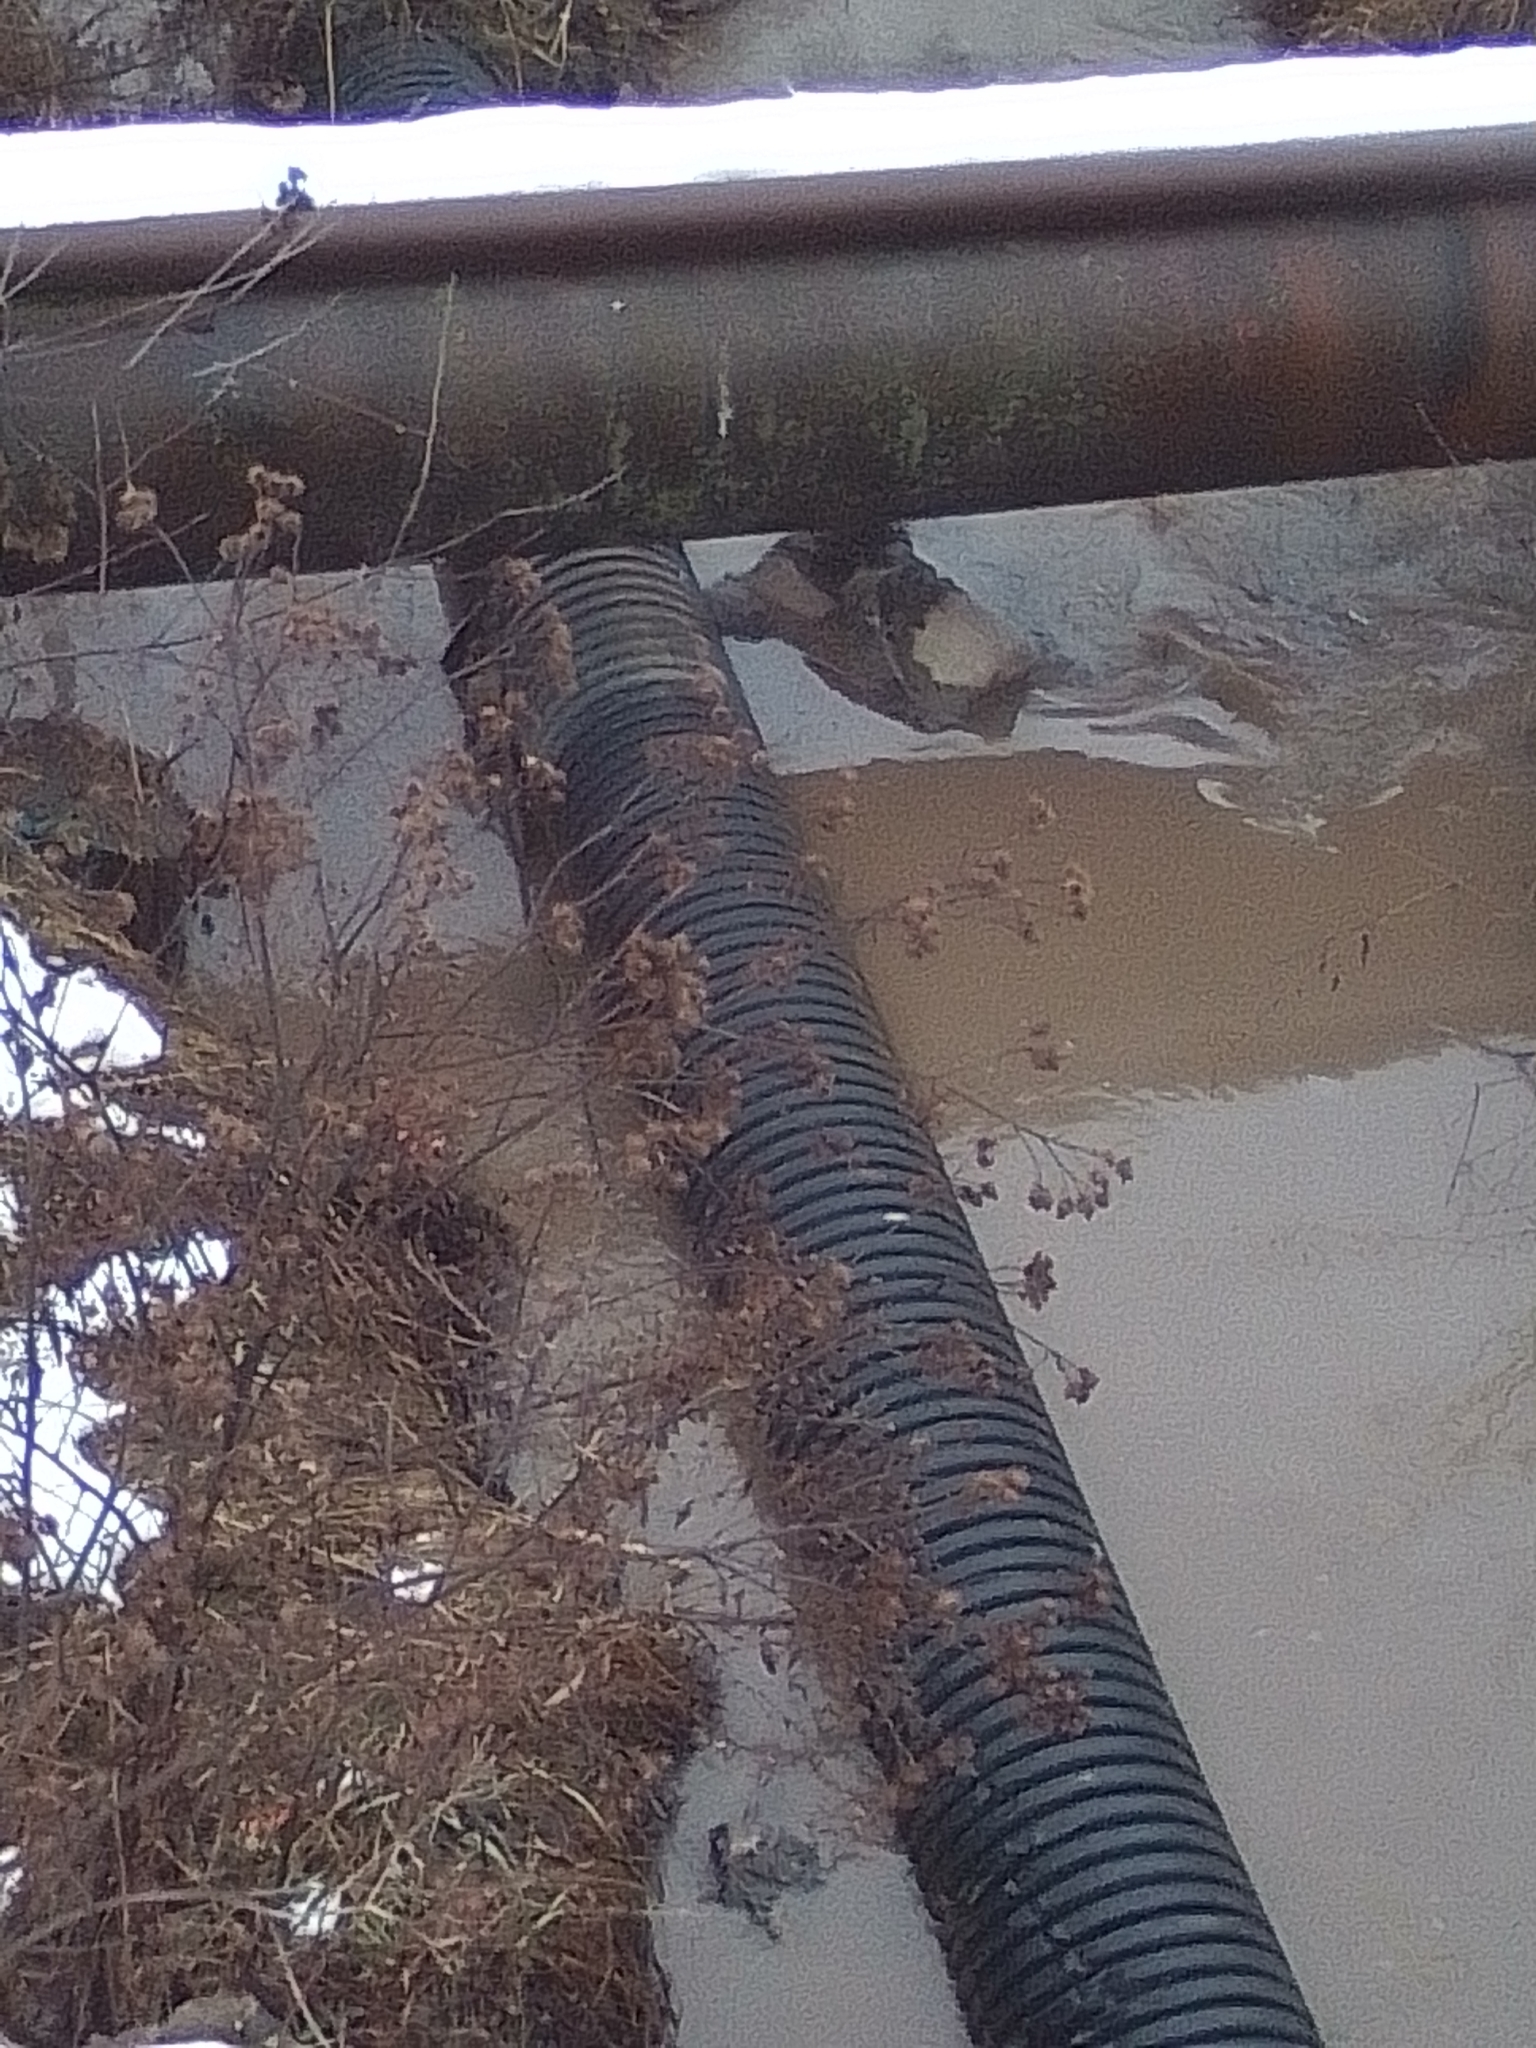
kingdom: Plantae
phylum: Tracheophyta
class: Magnoliopsida
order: Asterales
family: Asteraceae
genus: Arctium
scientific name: Arctium lappa
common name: Greater burdock
